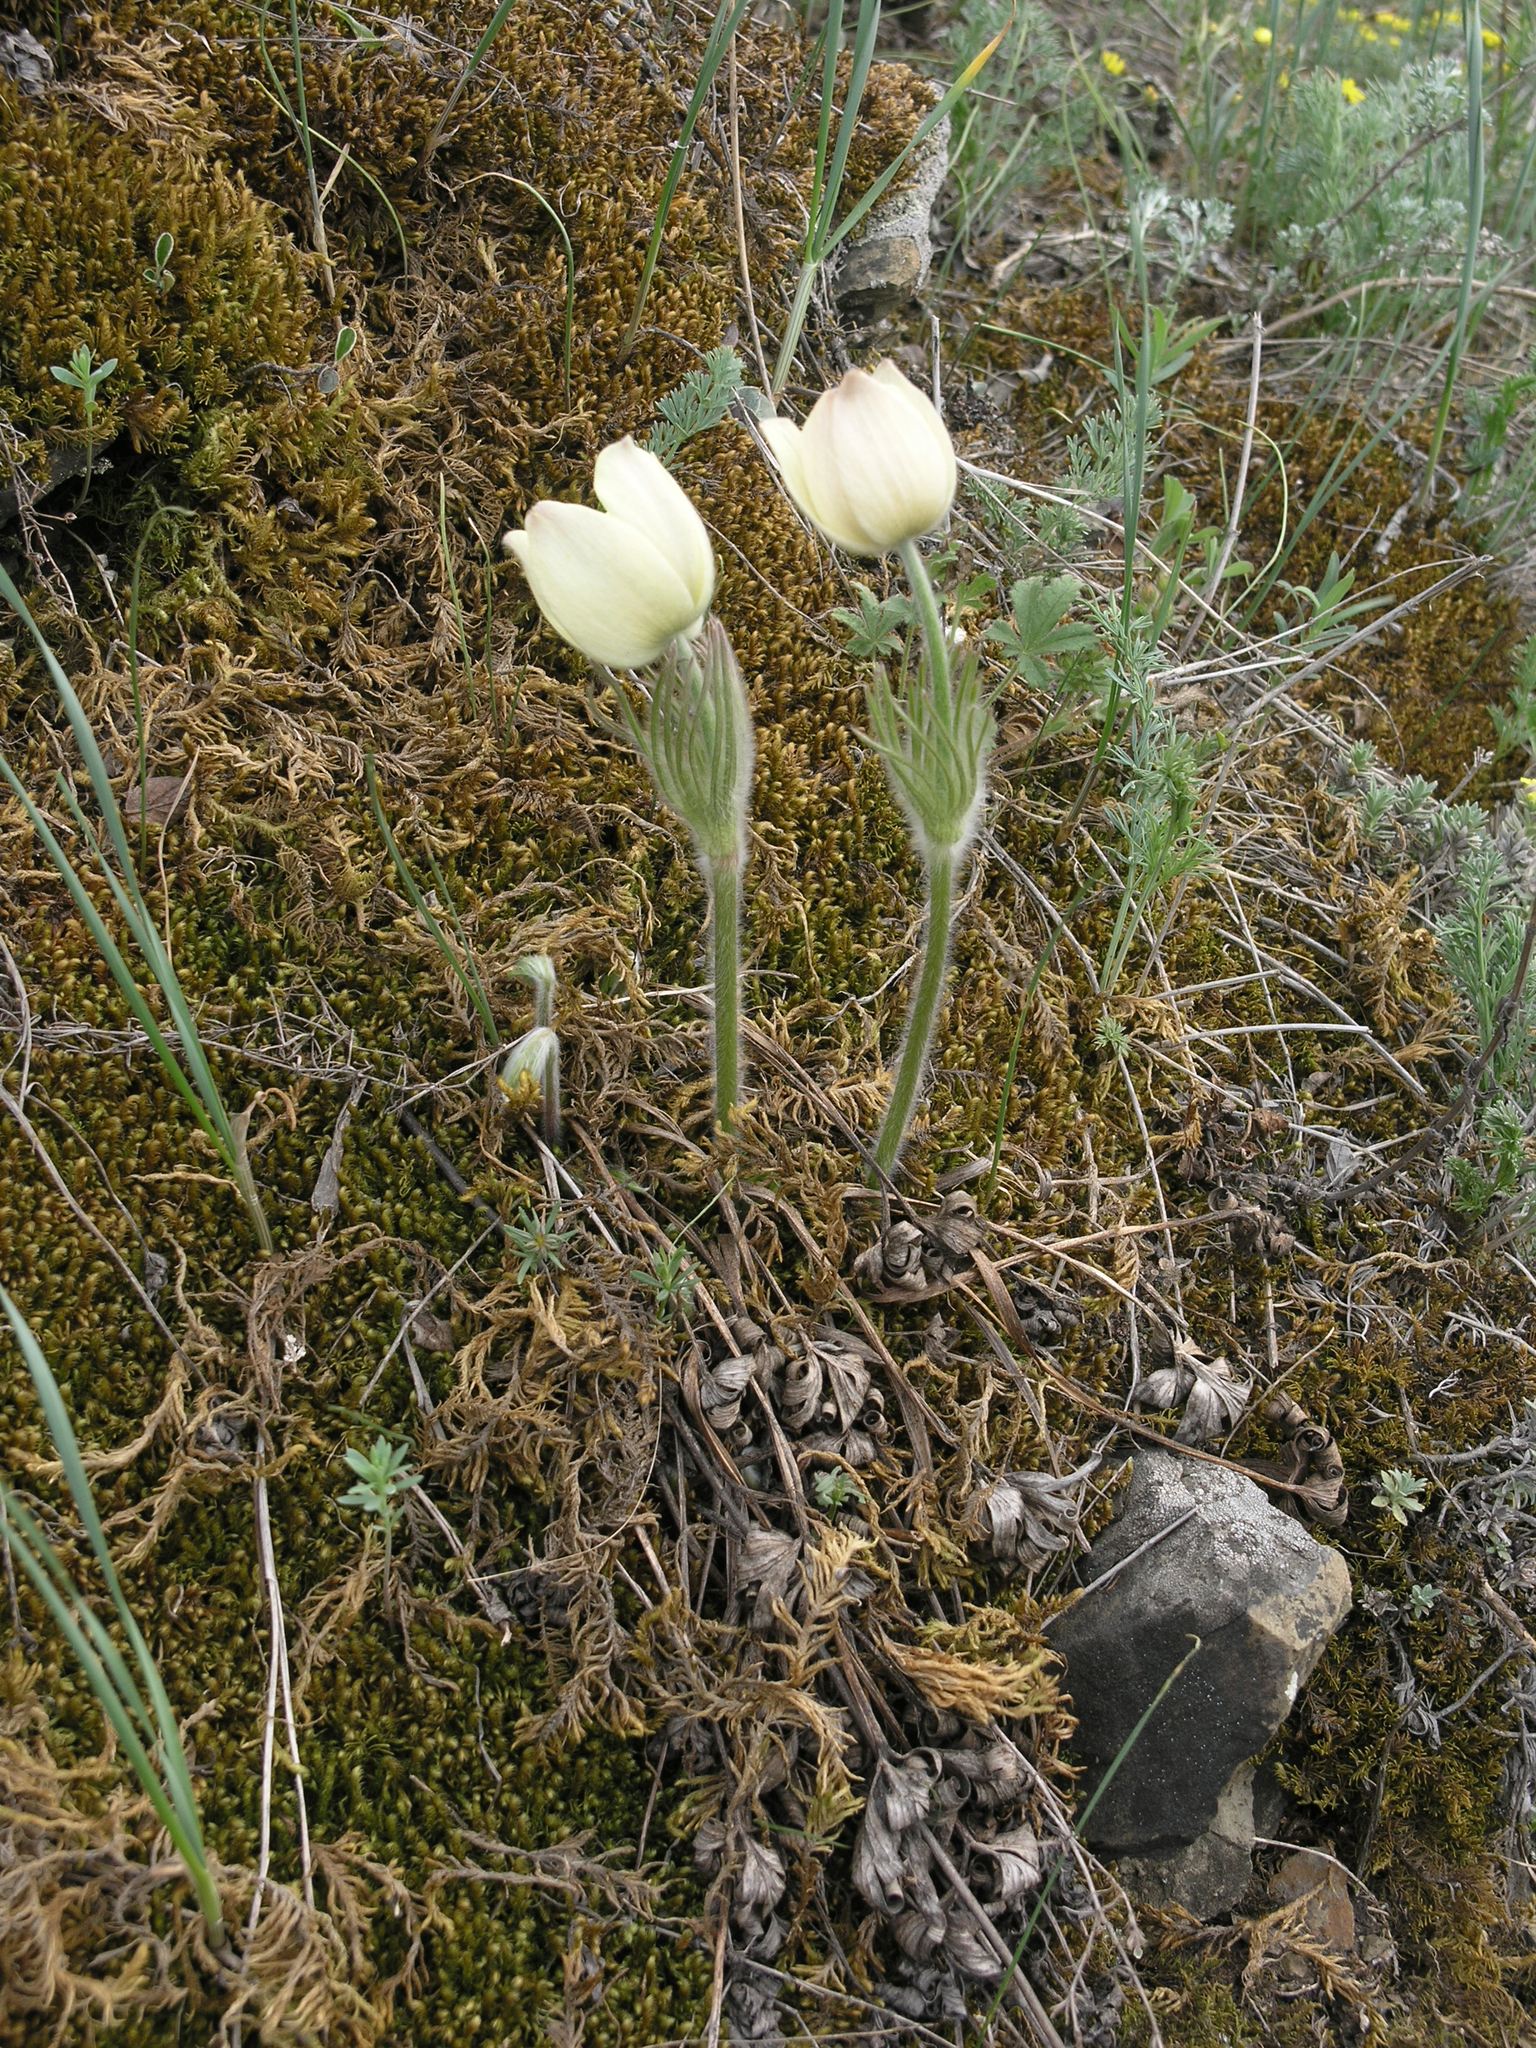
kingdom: Plantae
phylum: Tracheophyta
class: Magnoliopsida
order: Ranunculales
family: Ranunculaceae
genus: Pulsatilla
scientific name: Pulsatilla patens
